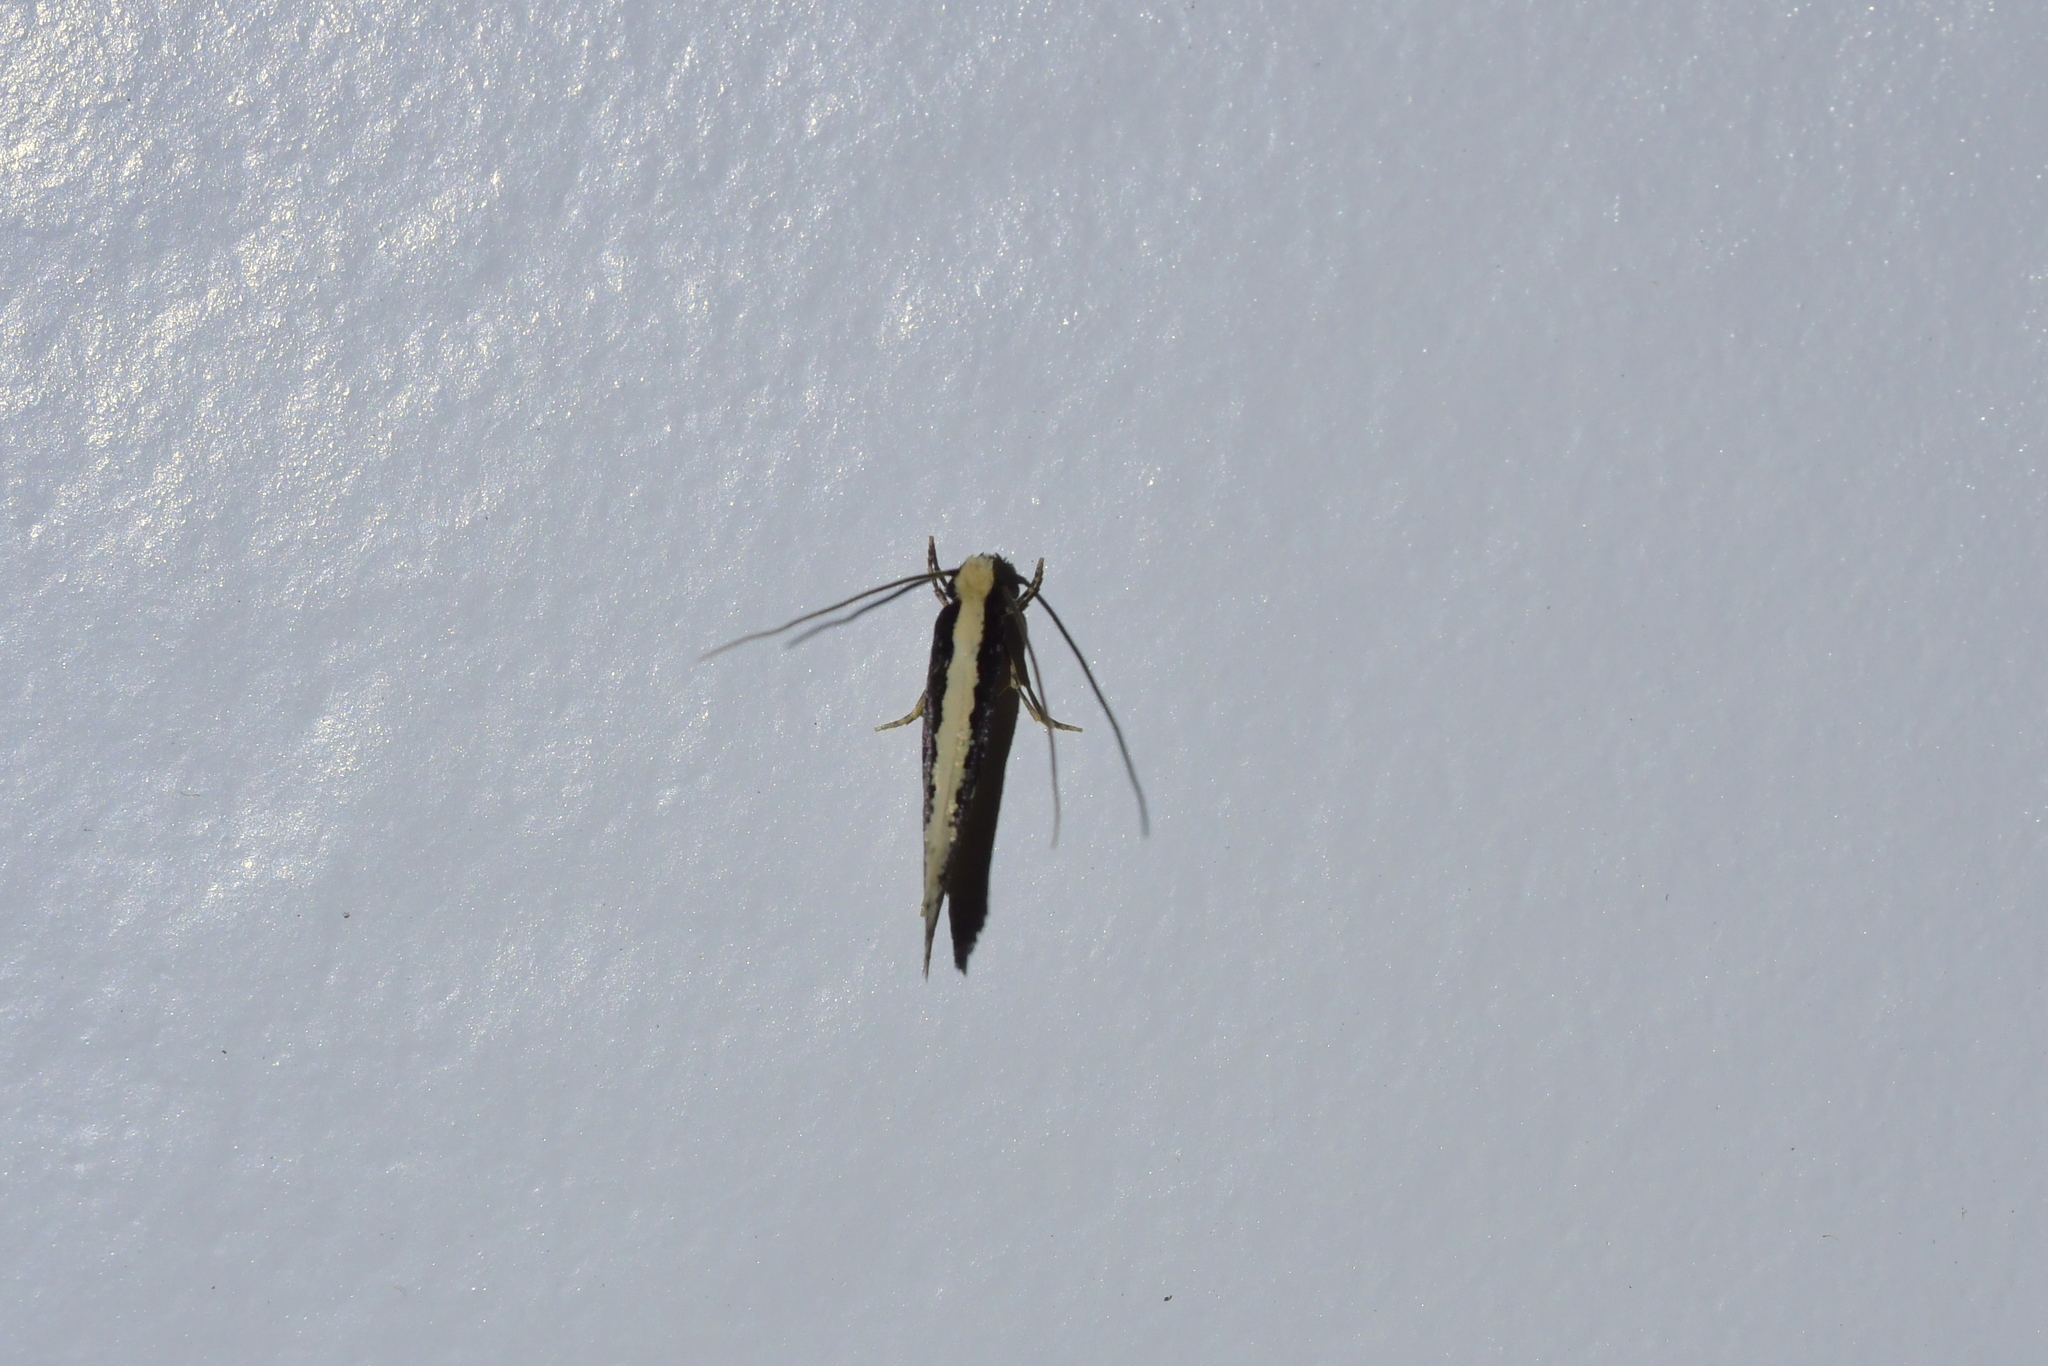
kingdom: Animalia
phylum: Arthropoda
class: Insecta
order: Lepidoptera
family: Tineidae
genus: Monopis
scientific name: Monopis ethelella
